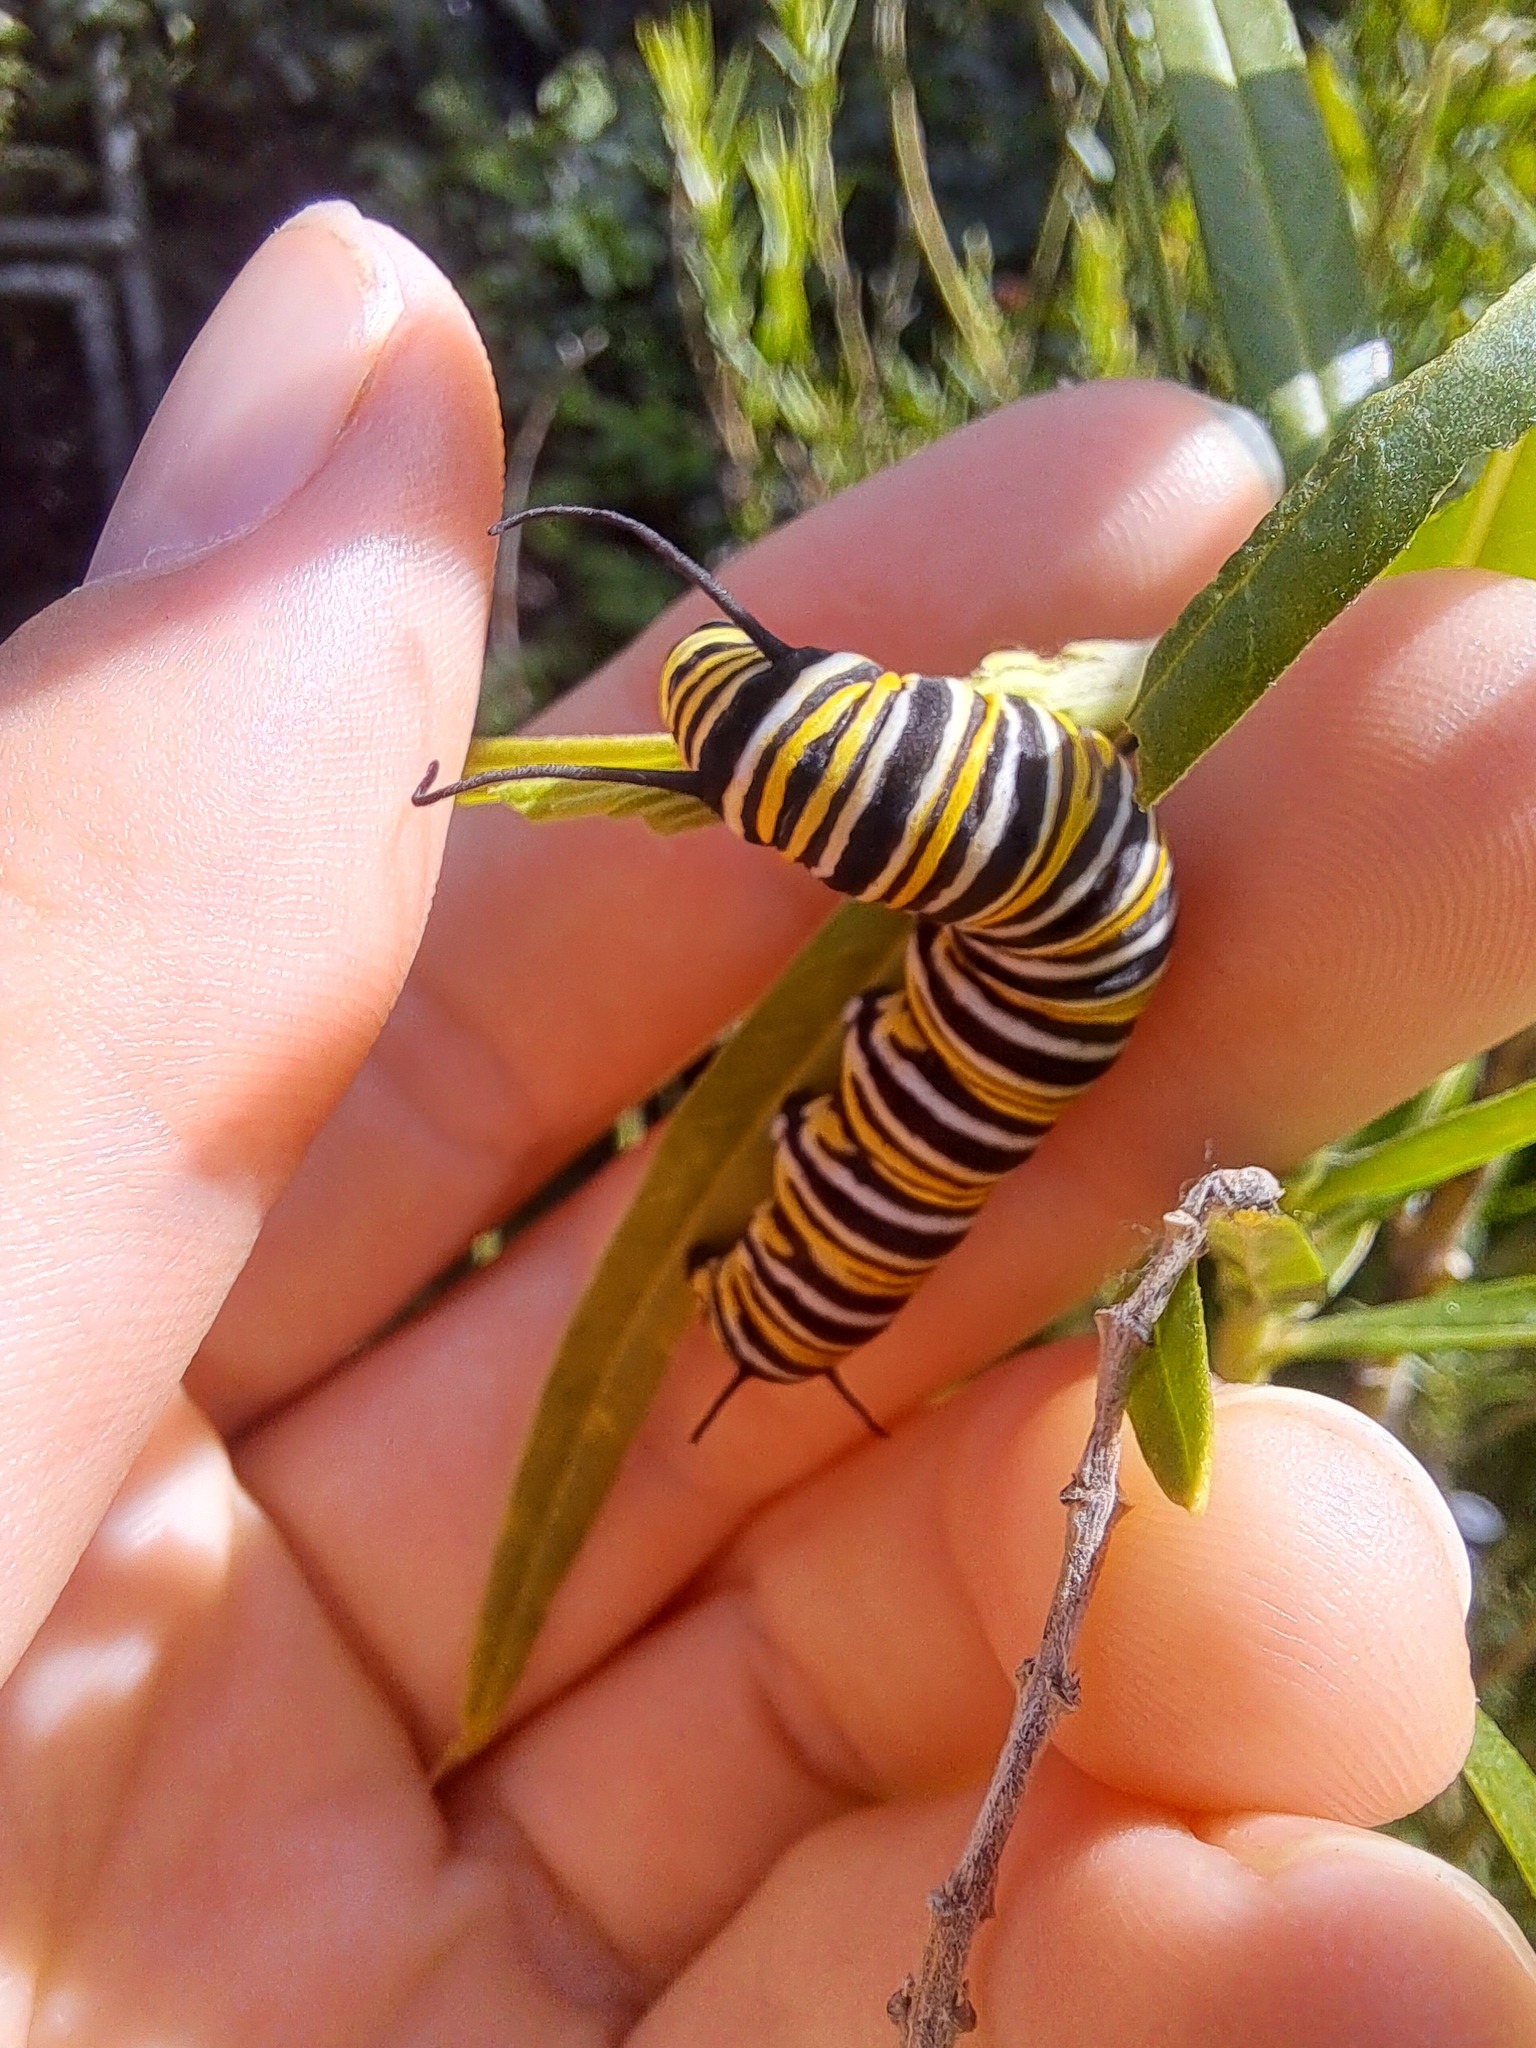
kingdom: Animalia
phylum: Arthropoda
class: Insecta
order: Lepidoptera
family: Nymphalidae
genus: Danaus
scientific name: Danaus plexippus
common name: Monarch
